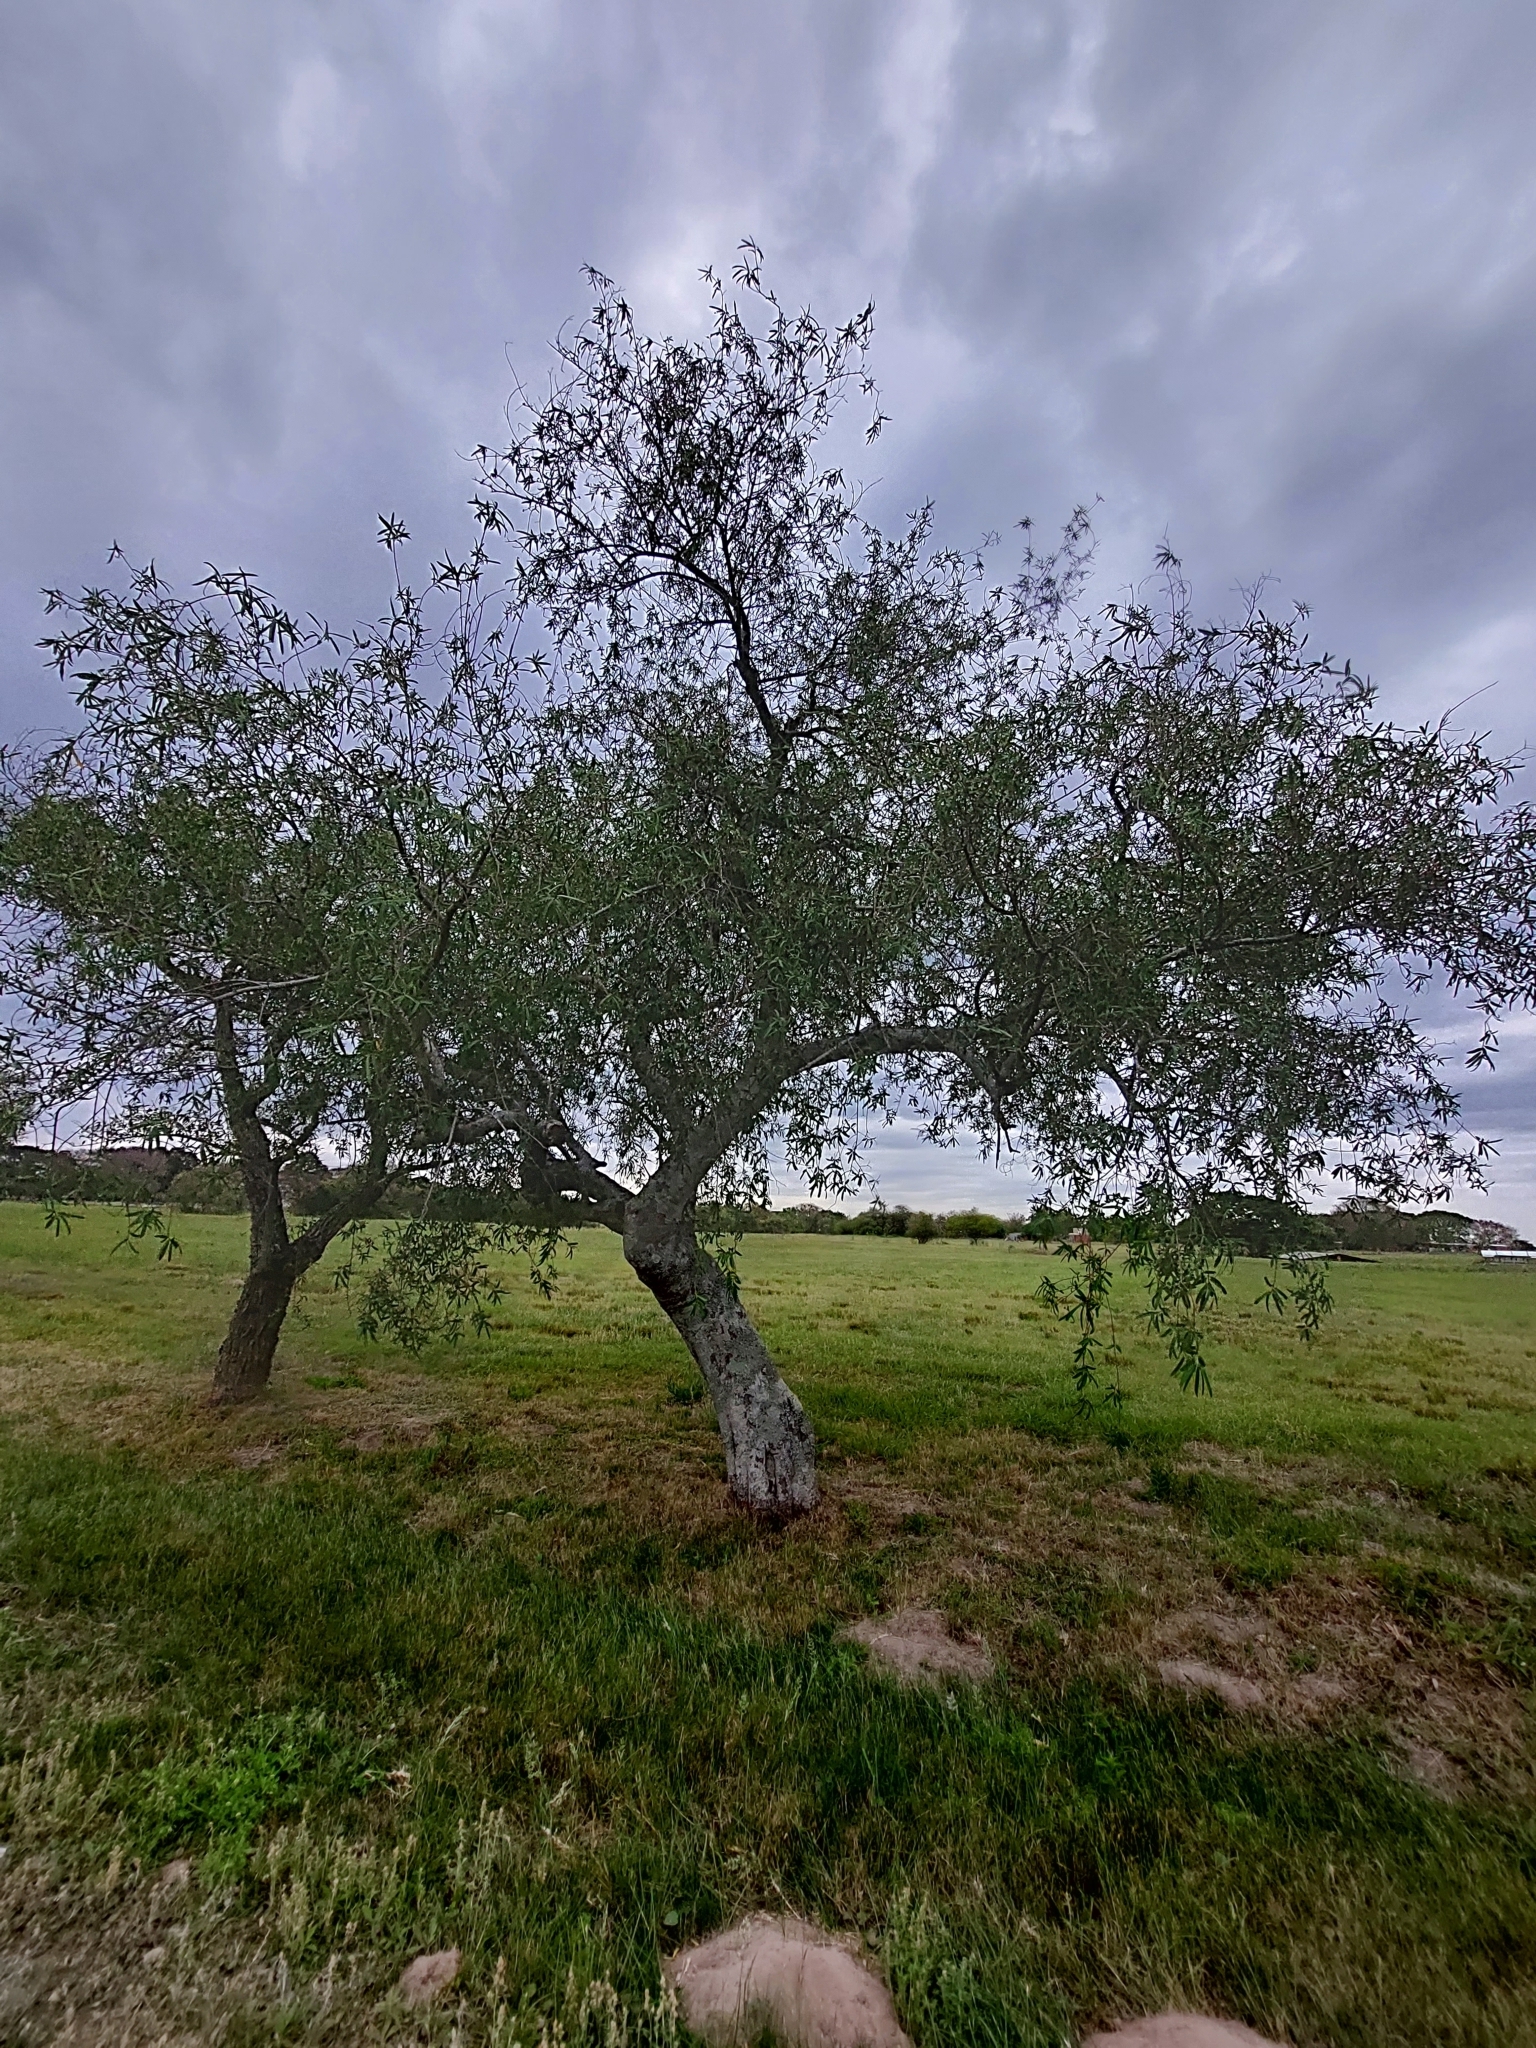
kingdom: Plantae
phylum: Tracheophyta
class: Magnoliopsida
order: Malpighiales
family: Euphorbiaceae
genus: Sapium
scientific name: Sapium haematospermum
